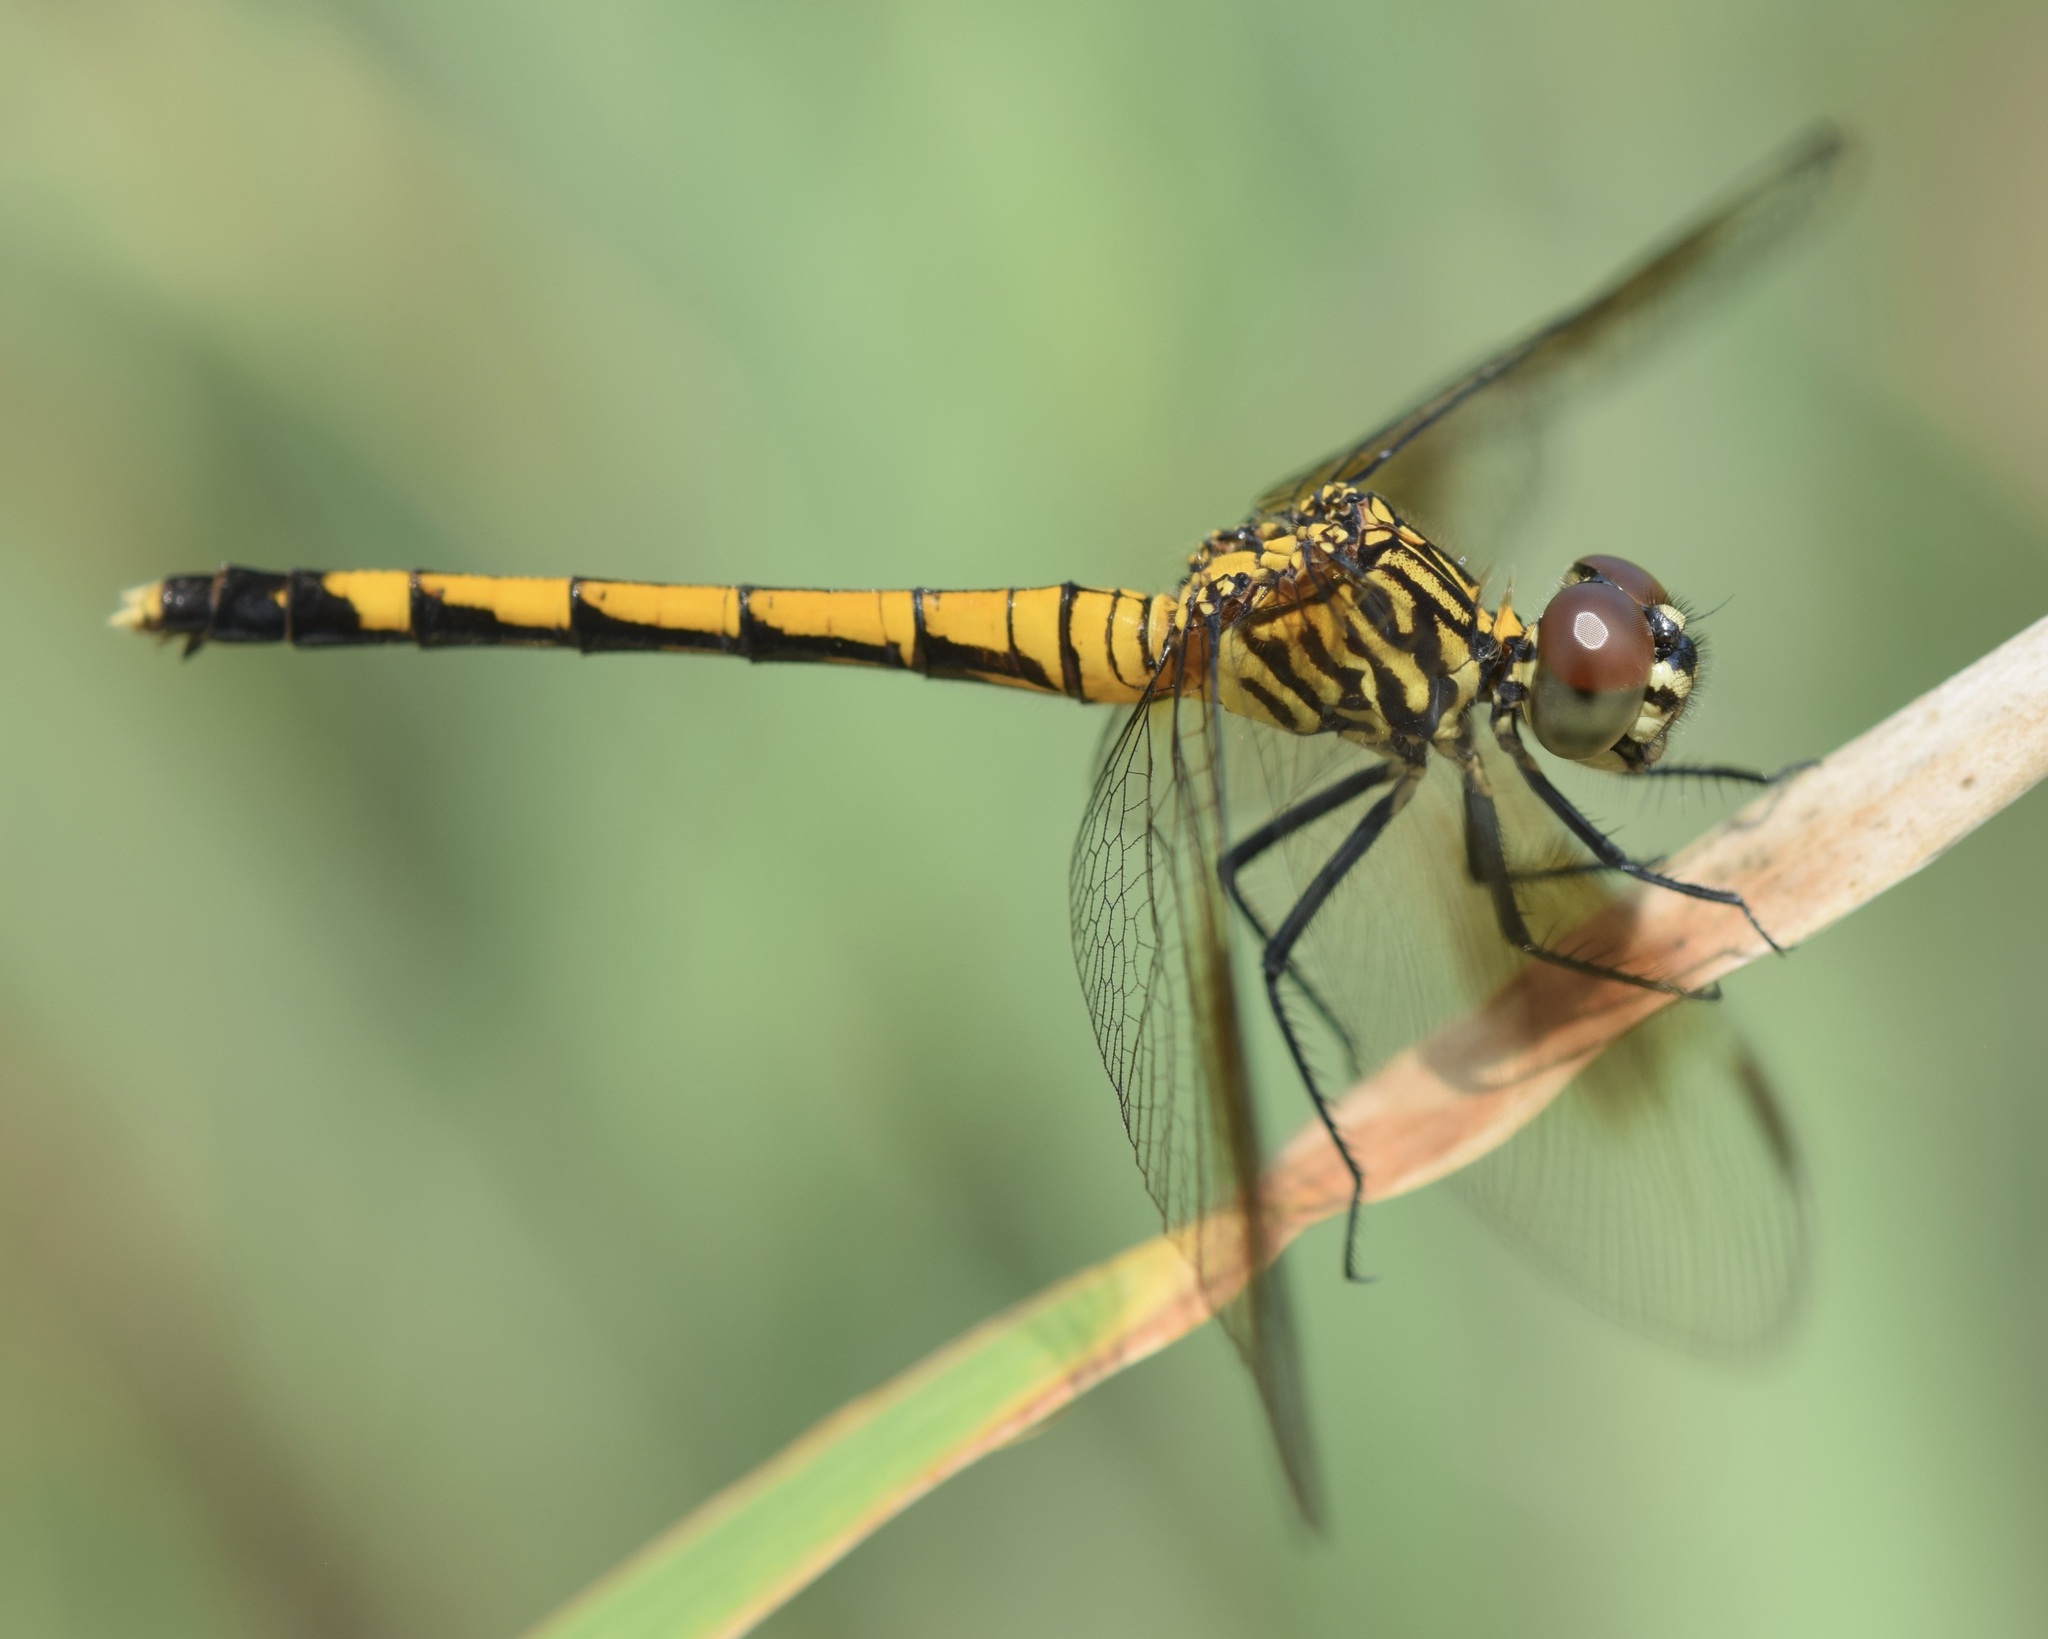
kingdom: Animalia
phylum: Arthropoda
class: Insecta
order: Odonata
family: Libellulidae
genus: Erythrodiplax
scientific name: Erythrodiplax berenice
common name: Seaside dragonlet
